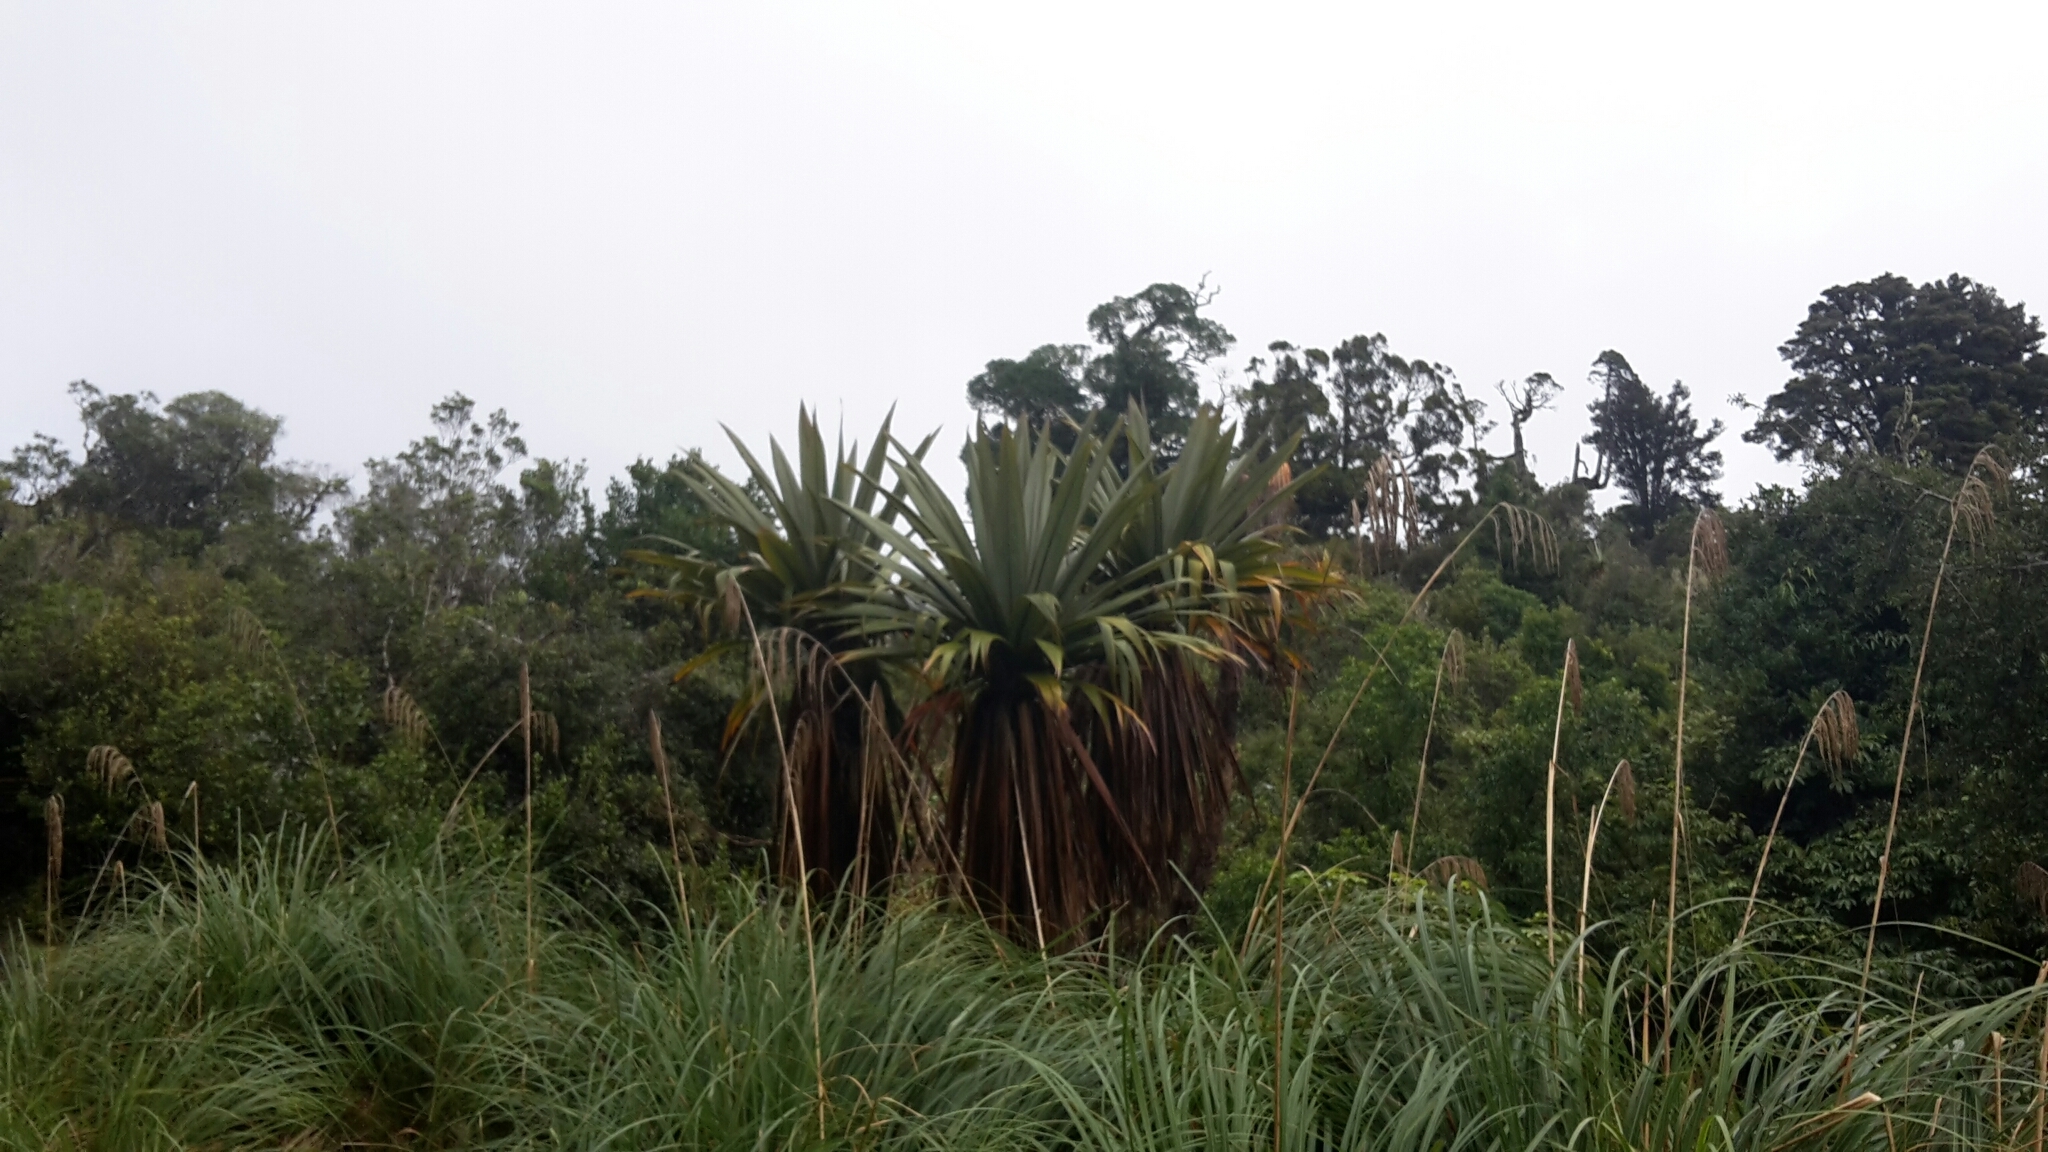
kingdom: Plantae
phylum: Tracheophyta
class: Liliopsida
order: Asparagales
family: Asparagaceae
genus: Cordyline
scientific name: Cordyline indivisa
